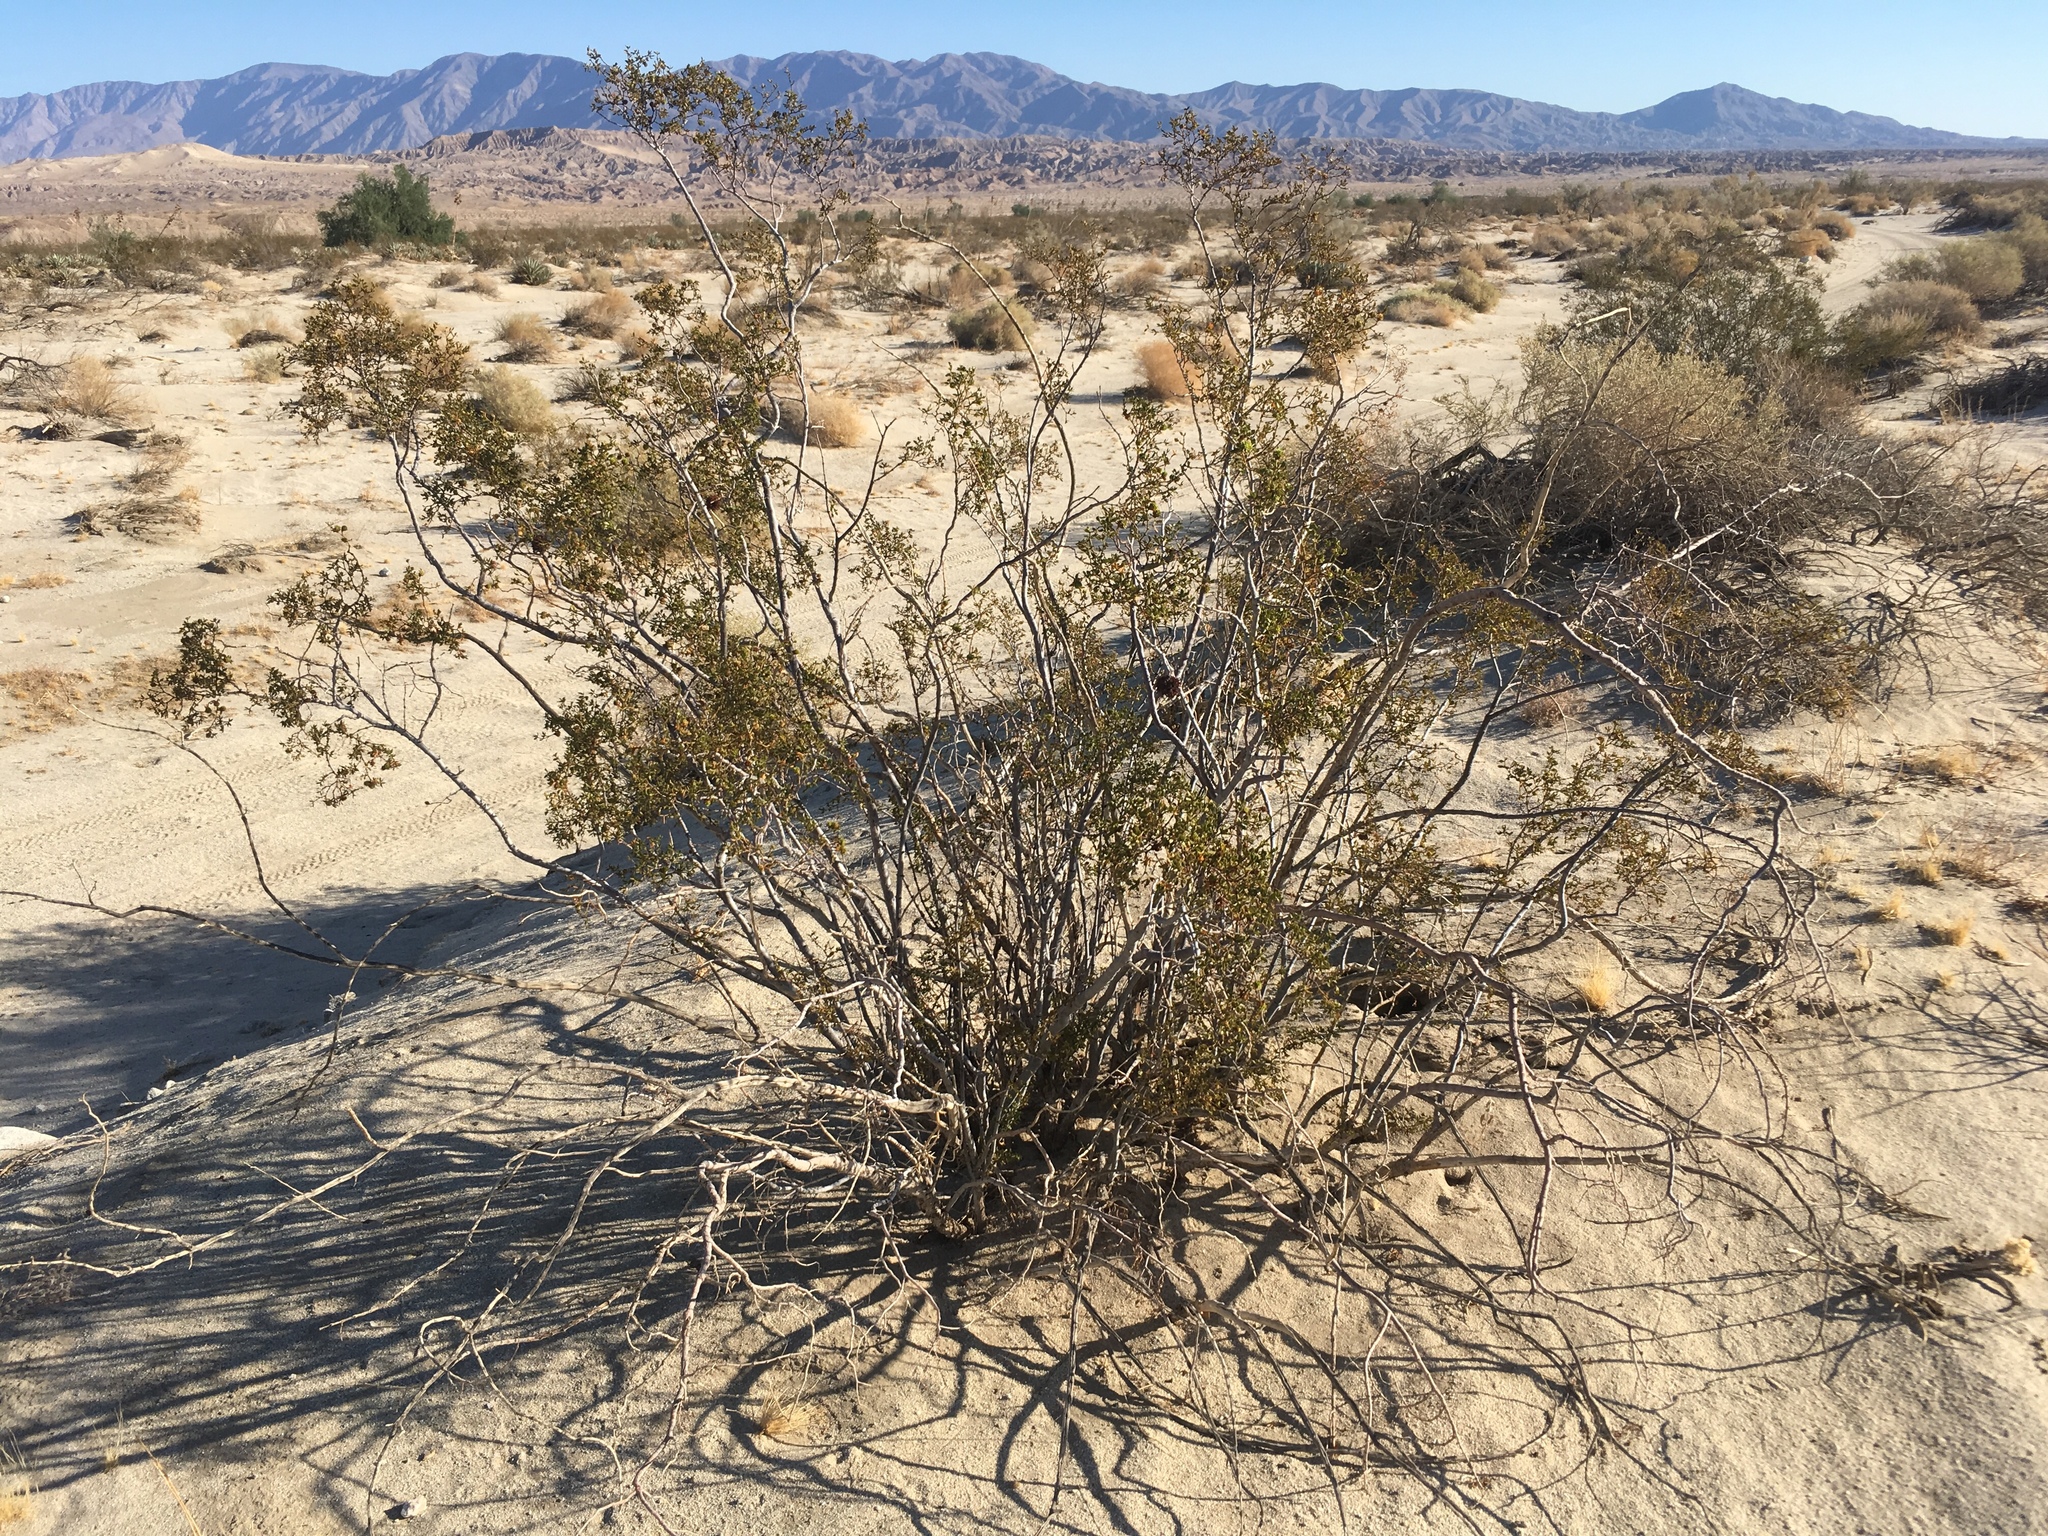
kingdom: Animalia
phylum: Arthropoda
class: Insecta
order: Diptera
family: Cecidomyiidae
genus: Asphondylia
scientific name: Asphondylia auripila
